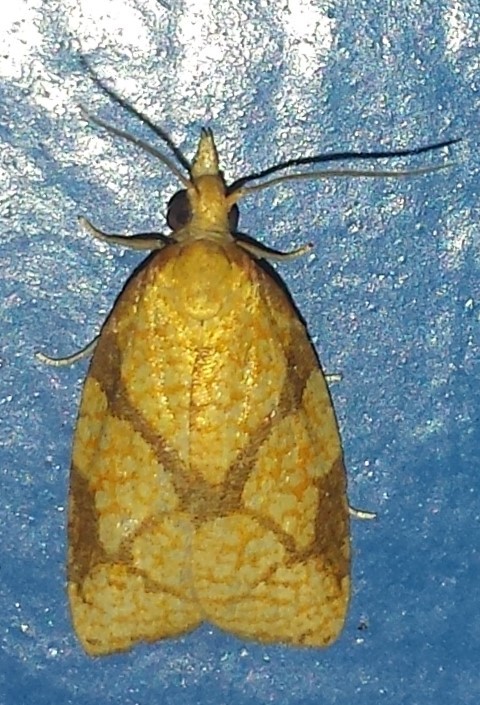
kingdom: Animalia
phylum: Arthropoda
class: Insecta
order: Lepidoptera
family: Tortricidae
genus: Cenopis
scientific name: Cenopis reticulatana
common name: Reticulated fruitworm moth
